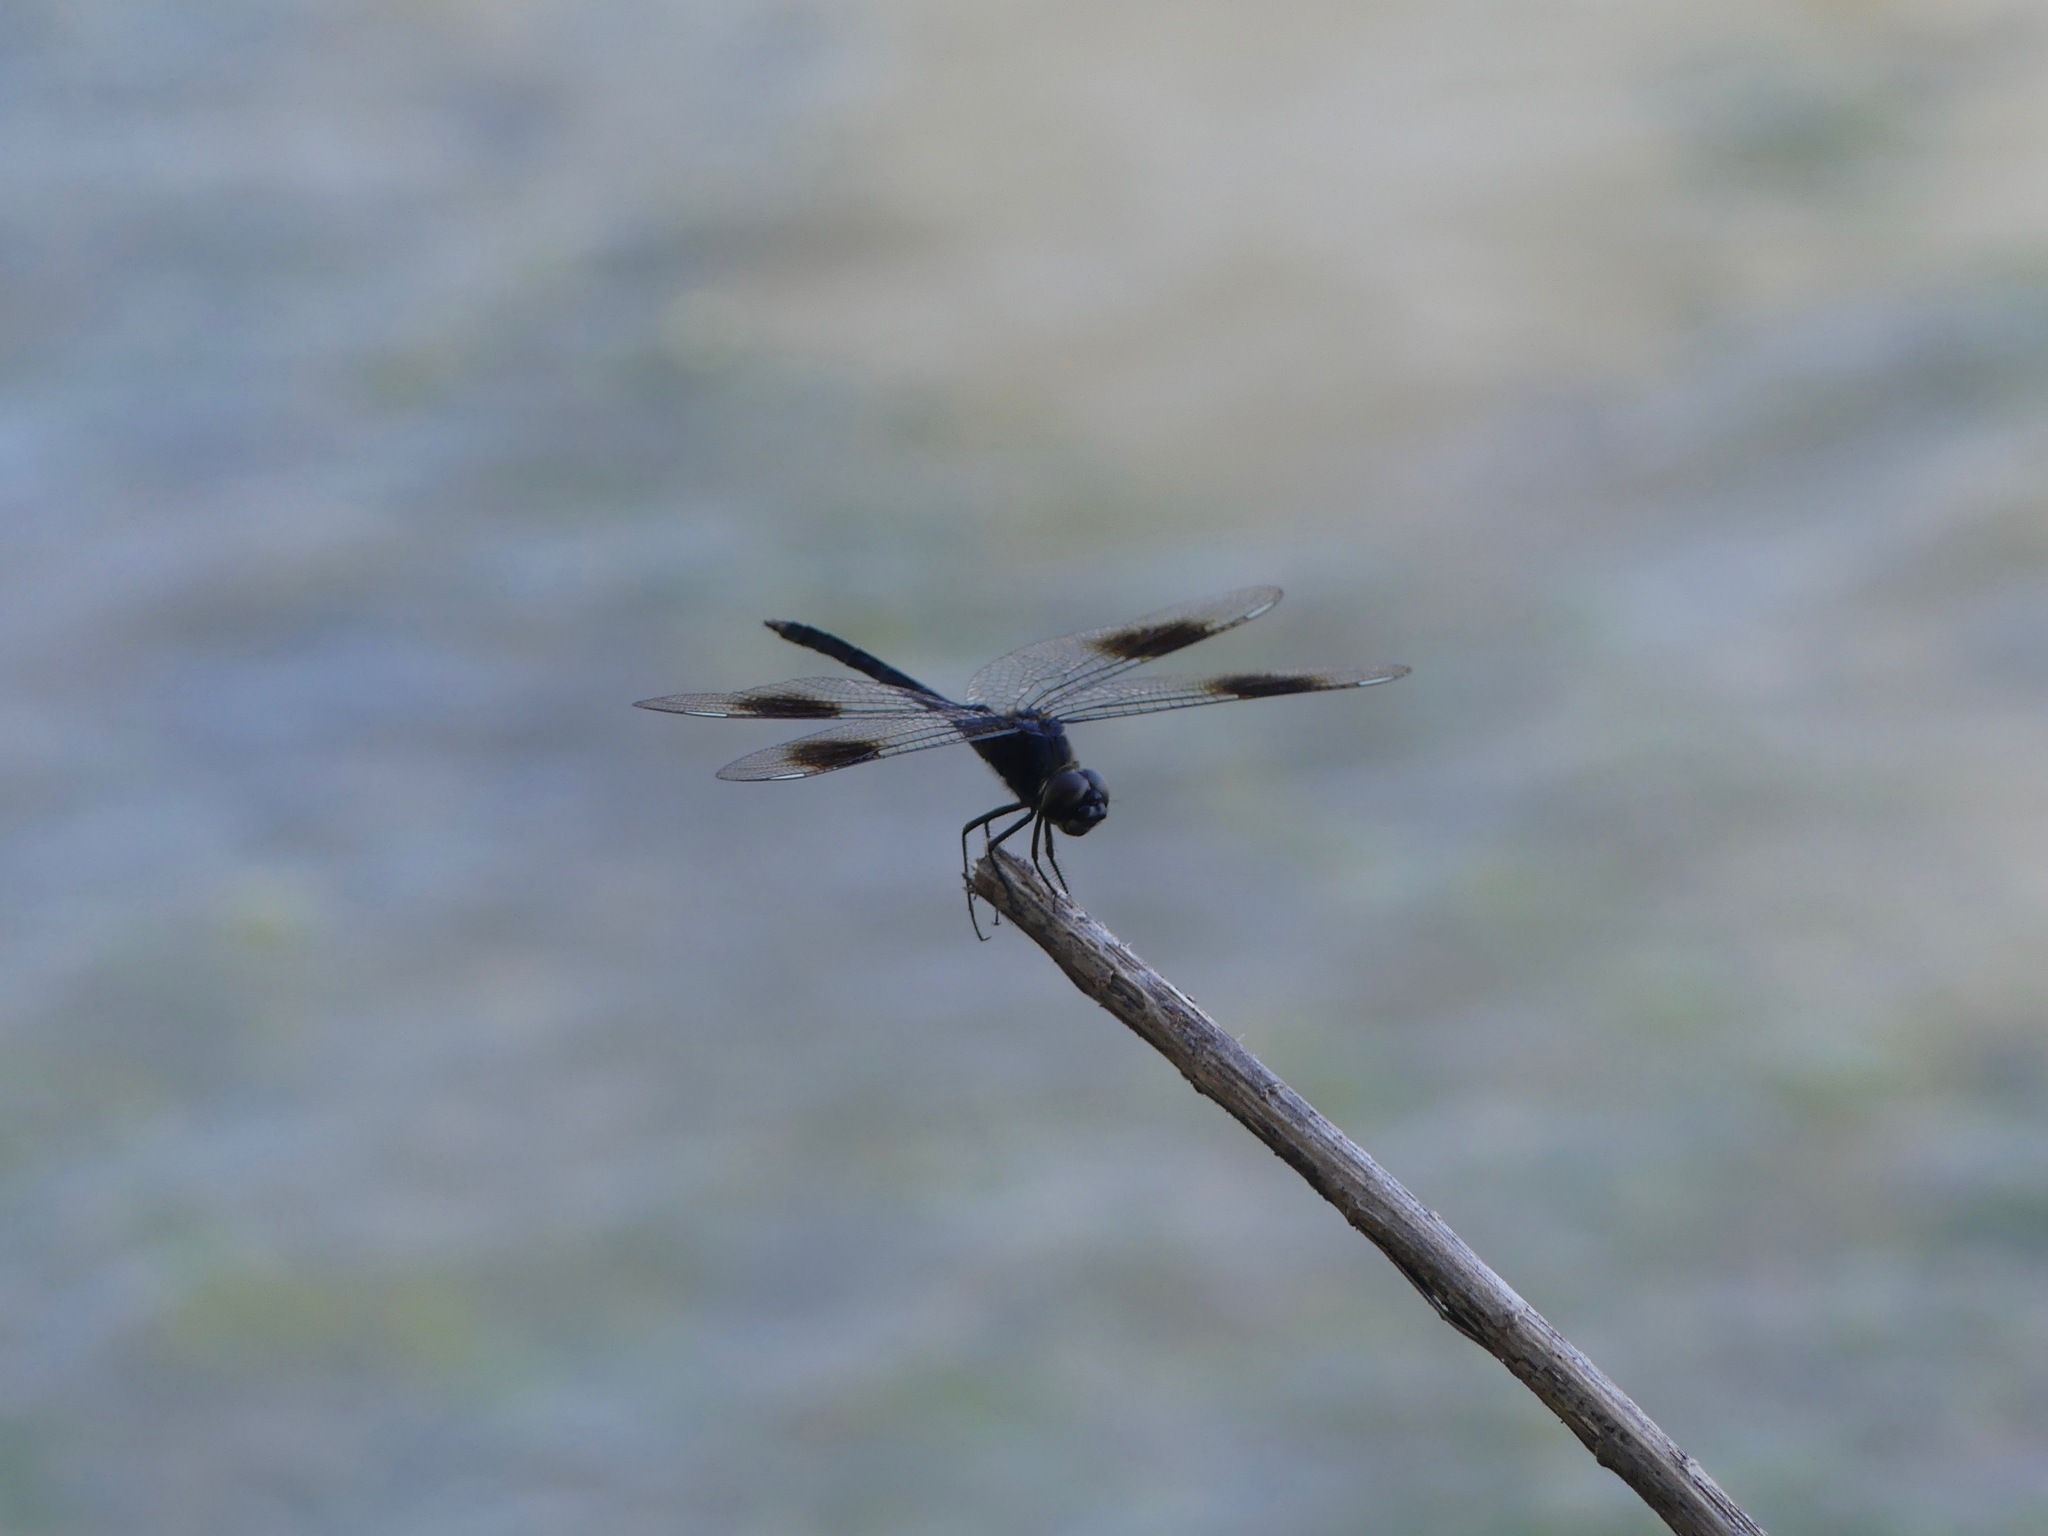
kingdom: Animalia
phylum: Arthropoda
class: Insecta
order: Odonata
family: Libellulidae
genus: Brachymesia
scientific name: Brachymesia gravida
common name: Four-spotted pennant
